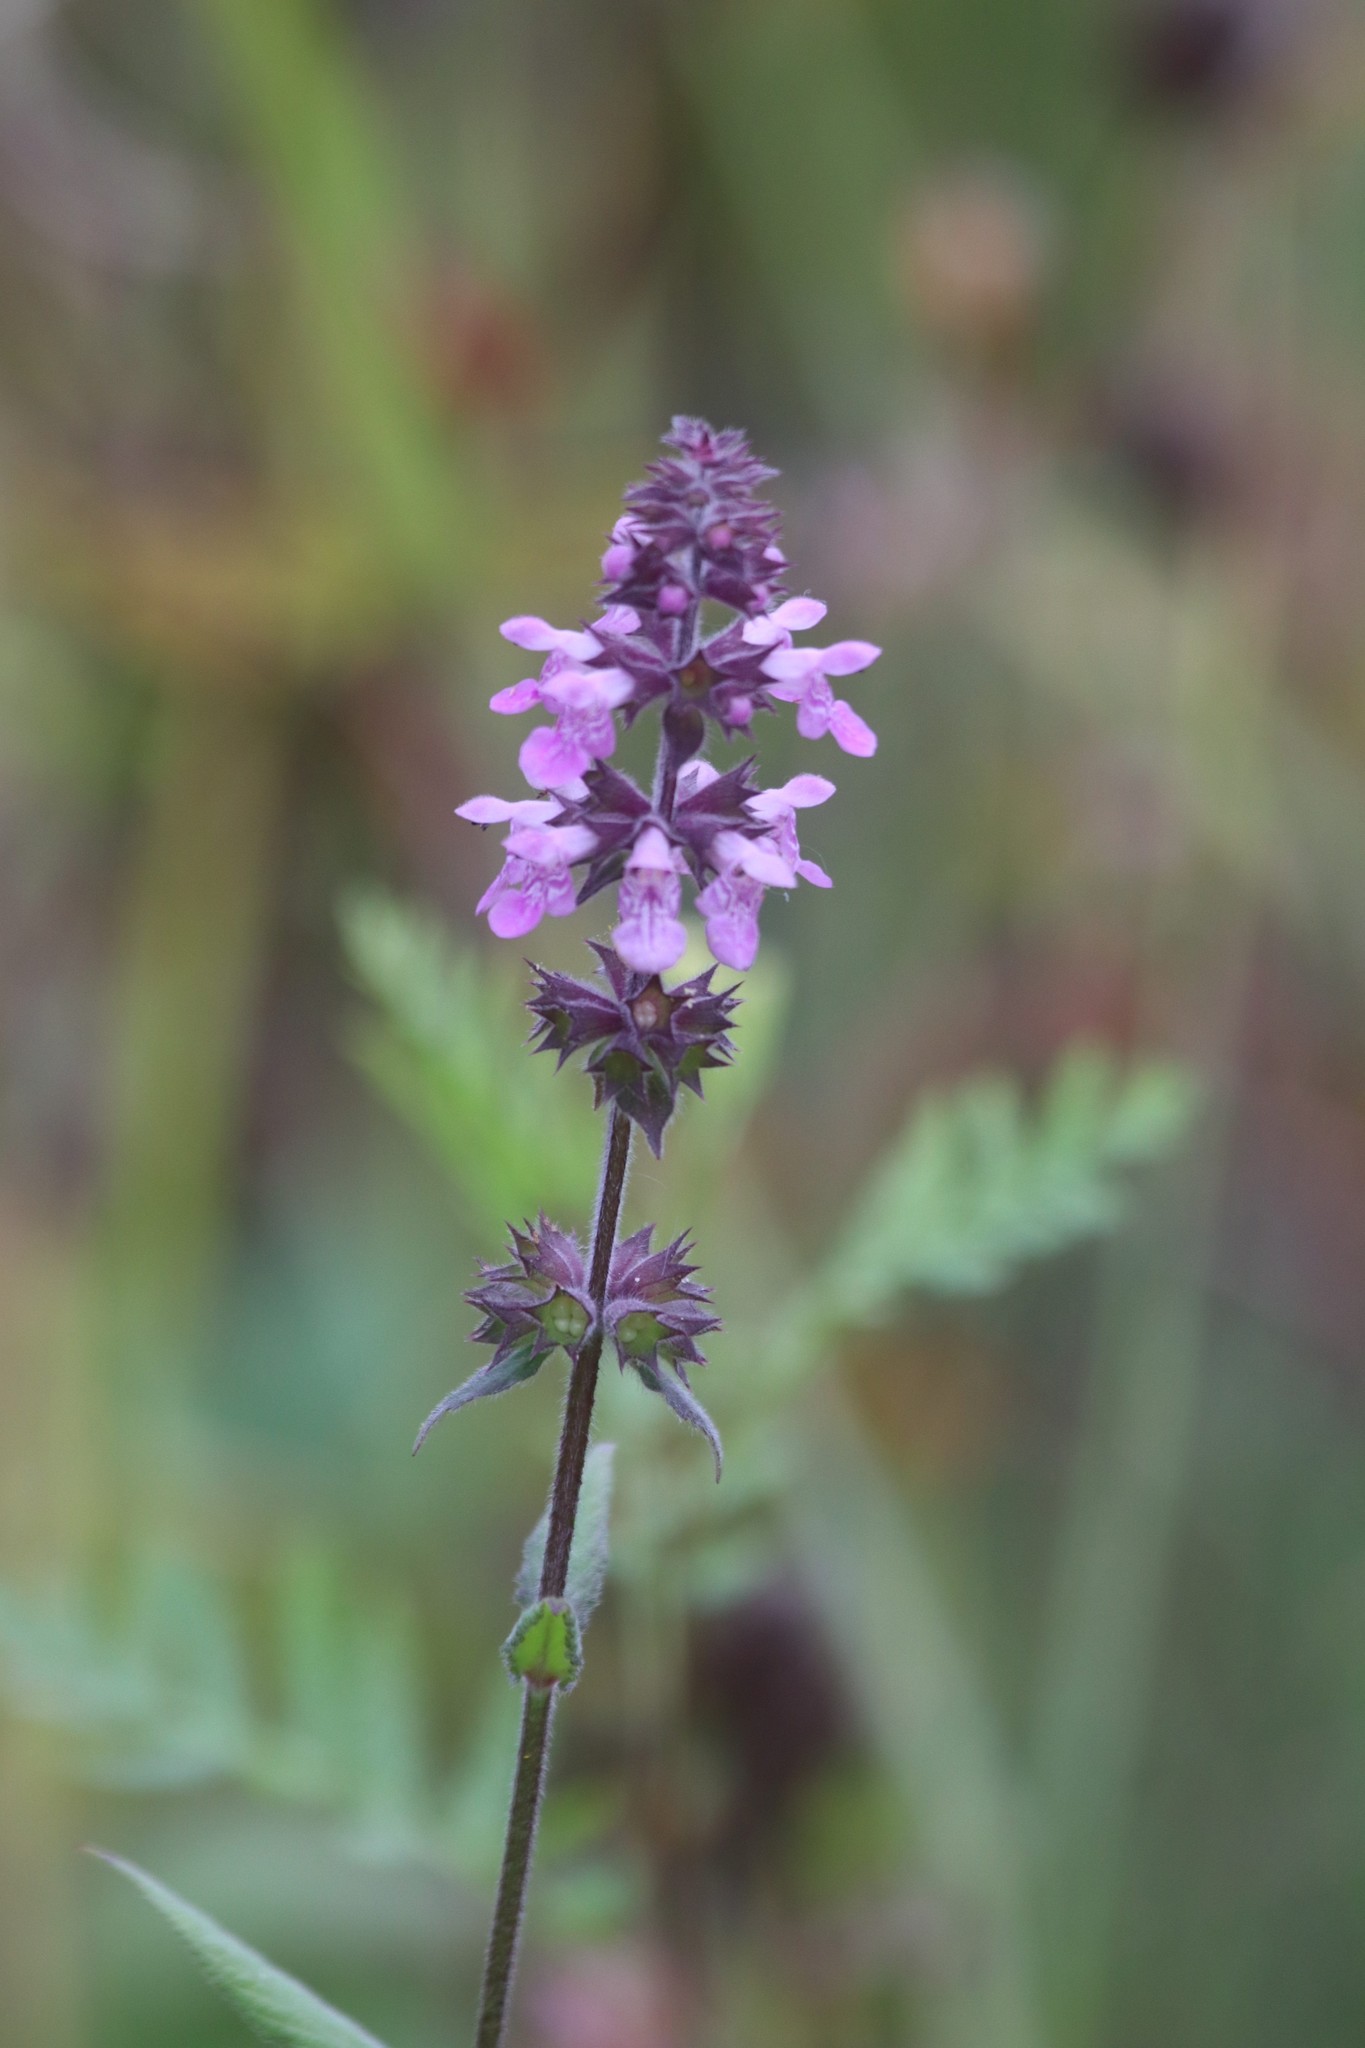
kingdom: Plantae
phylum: Tracheophyta
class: Magnoliopsida
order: Lamiales
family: Lamiaceae
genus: Stachys
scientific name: Stachys palustris
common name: Marsh woundwort
